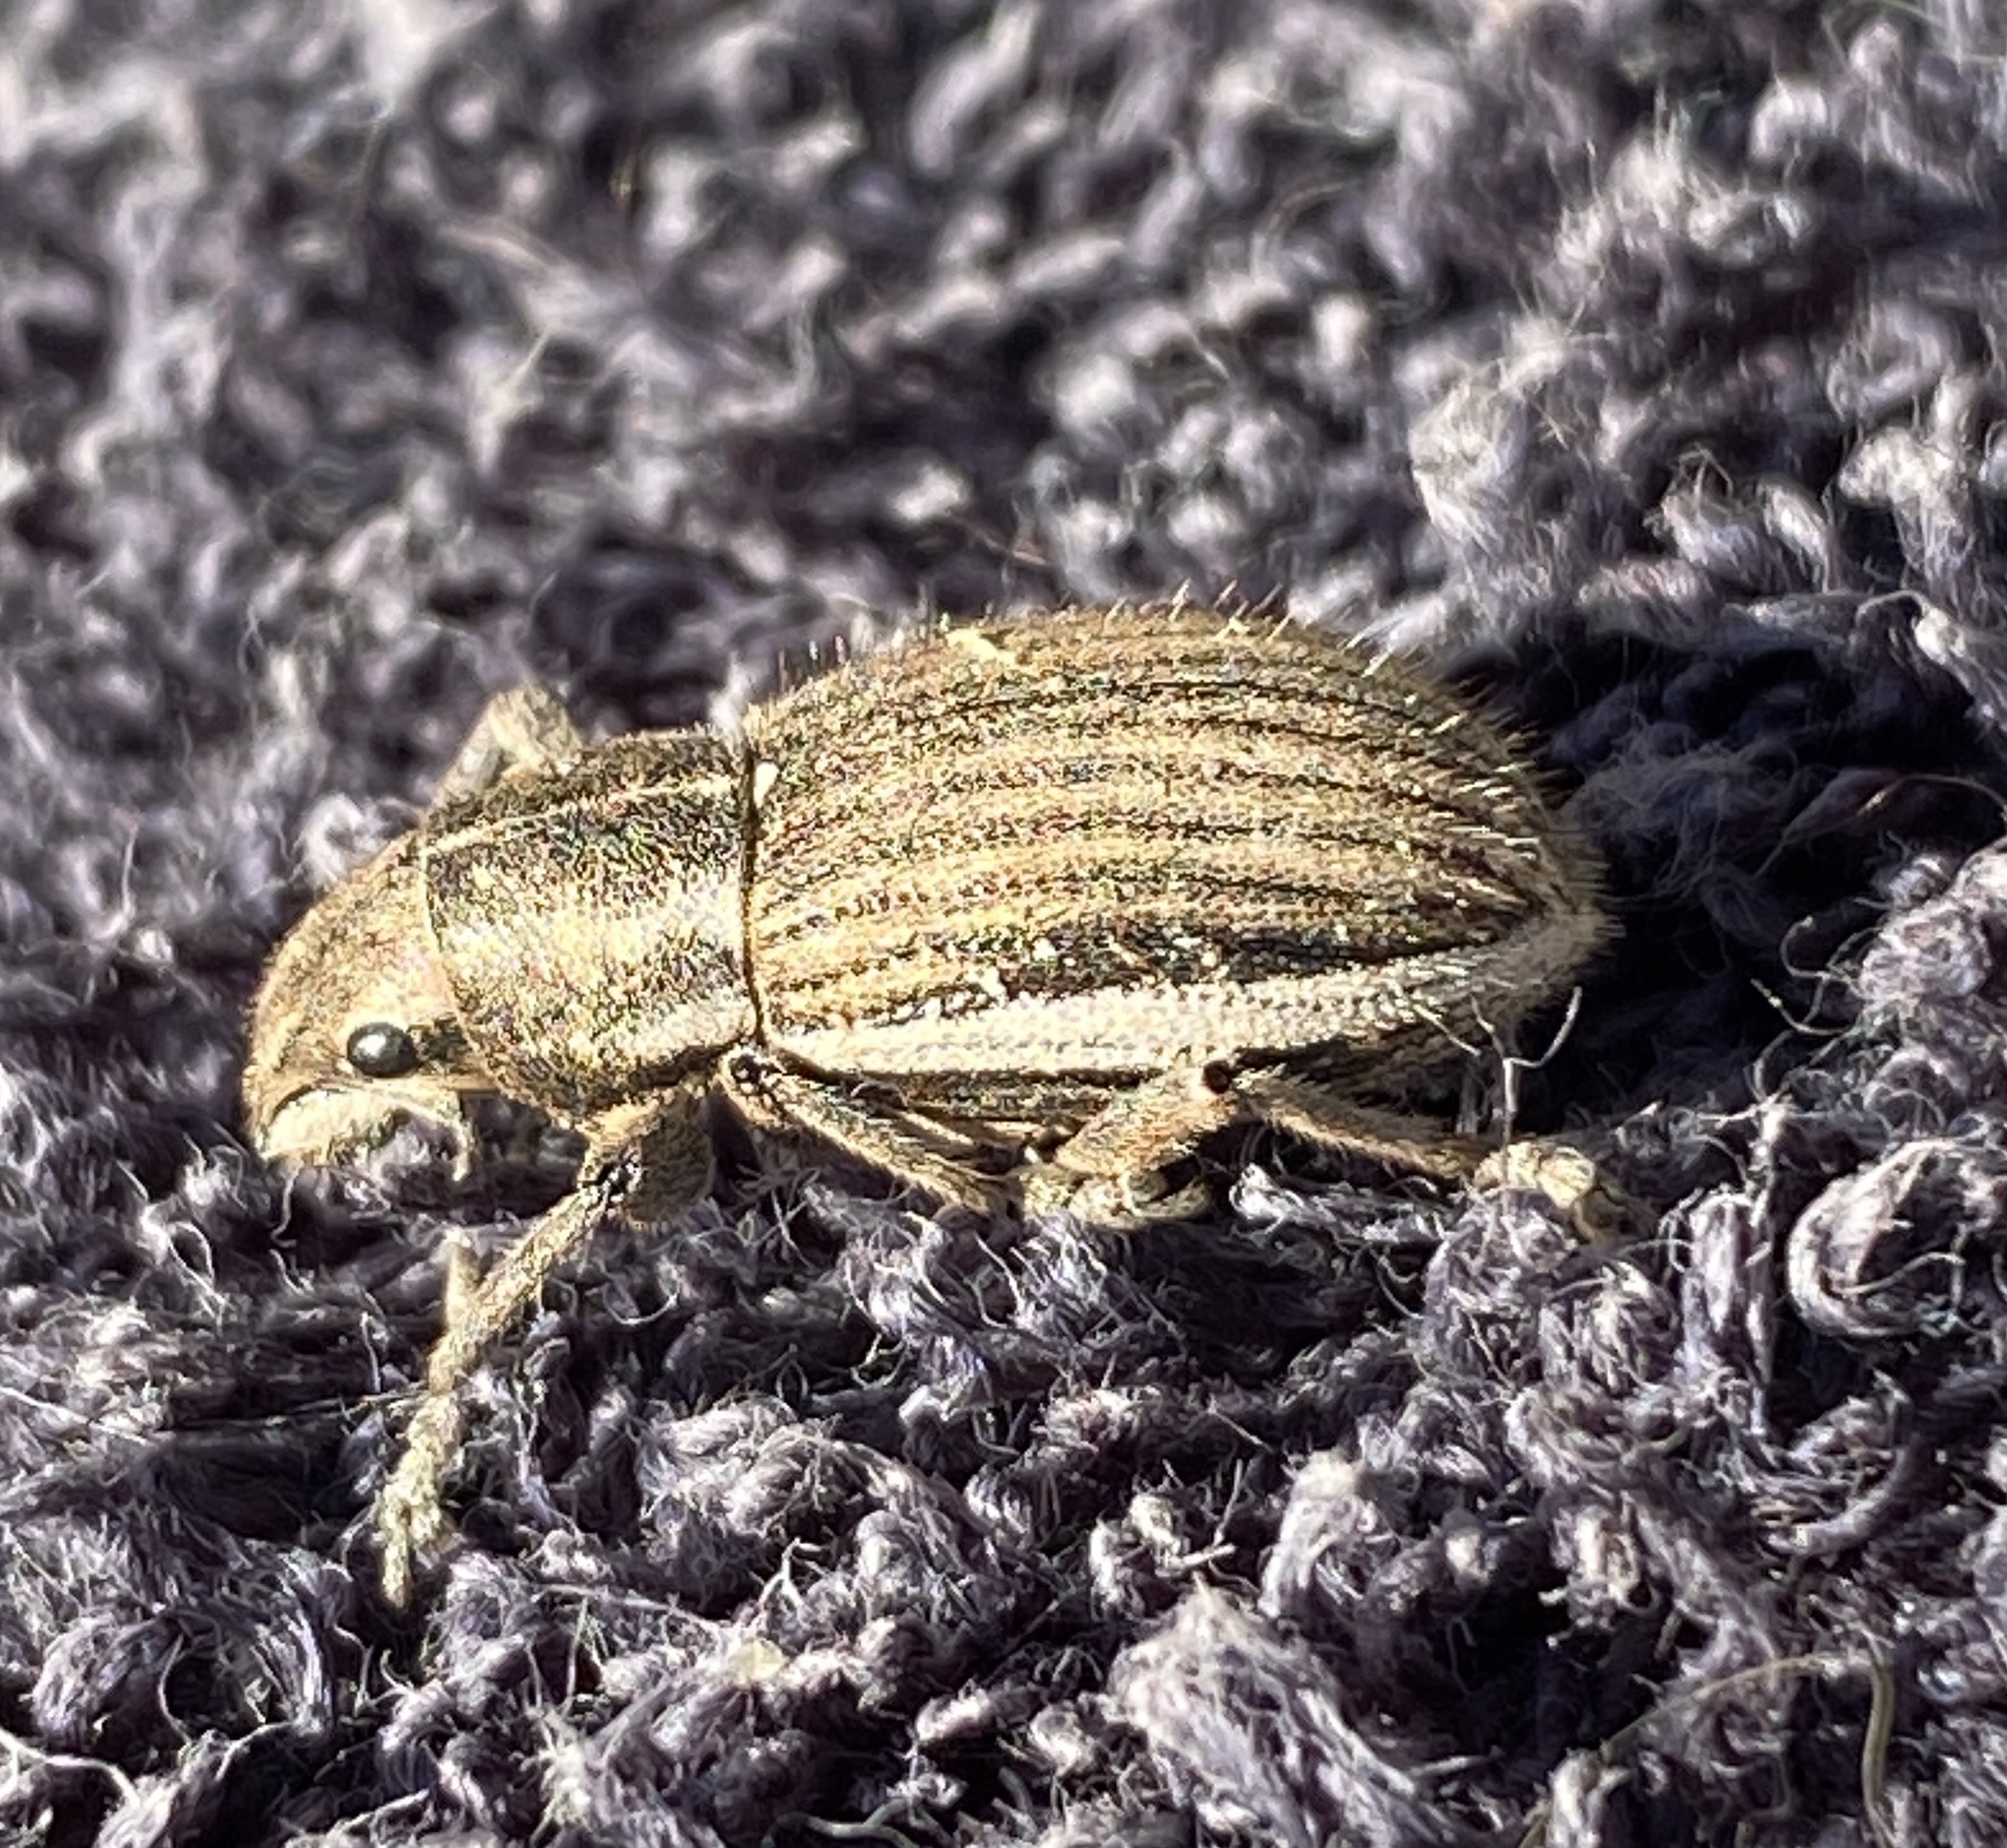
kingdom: Animalia
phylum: Arthropoda
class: Insecta
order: Coleoptera
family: Curculionidae
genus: Naupactus
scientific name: Naupactus leucoloma
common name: Whitefringed beetle
